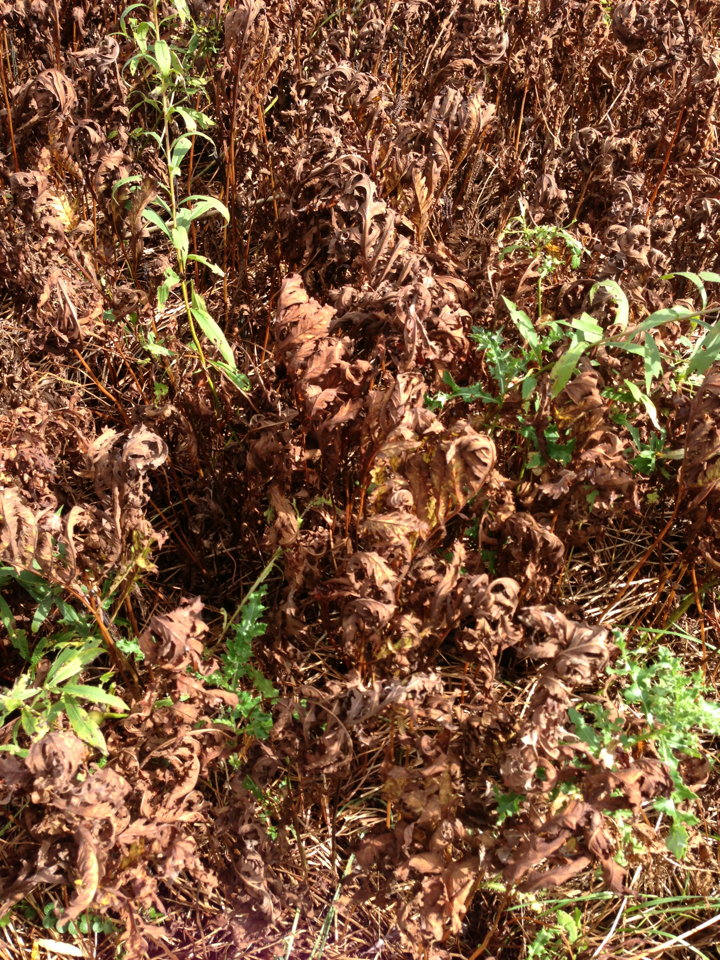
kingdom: Plantae
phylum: Tracheophyta
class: Polypodiopsida
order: Polypodiales
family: Onocleaceae
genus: Onoclea
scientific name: Onoclea sensibilis
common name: Sensitive fern
